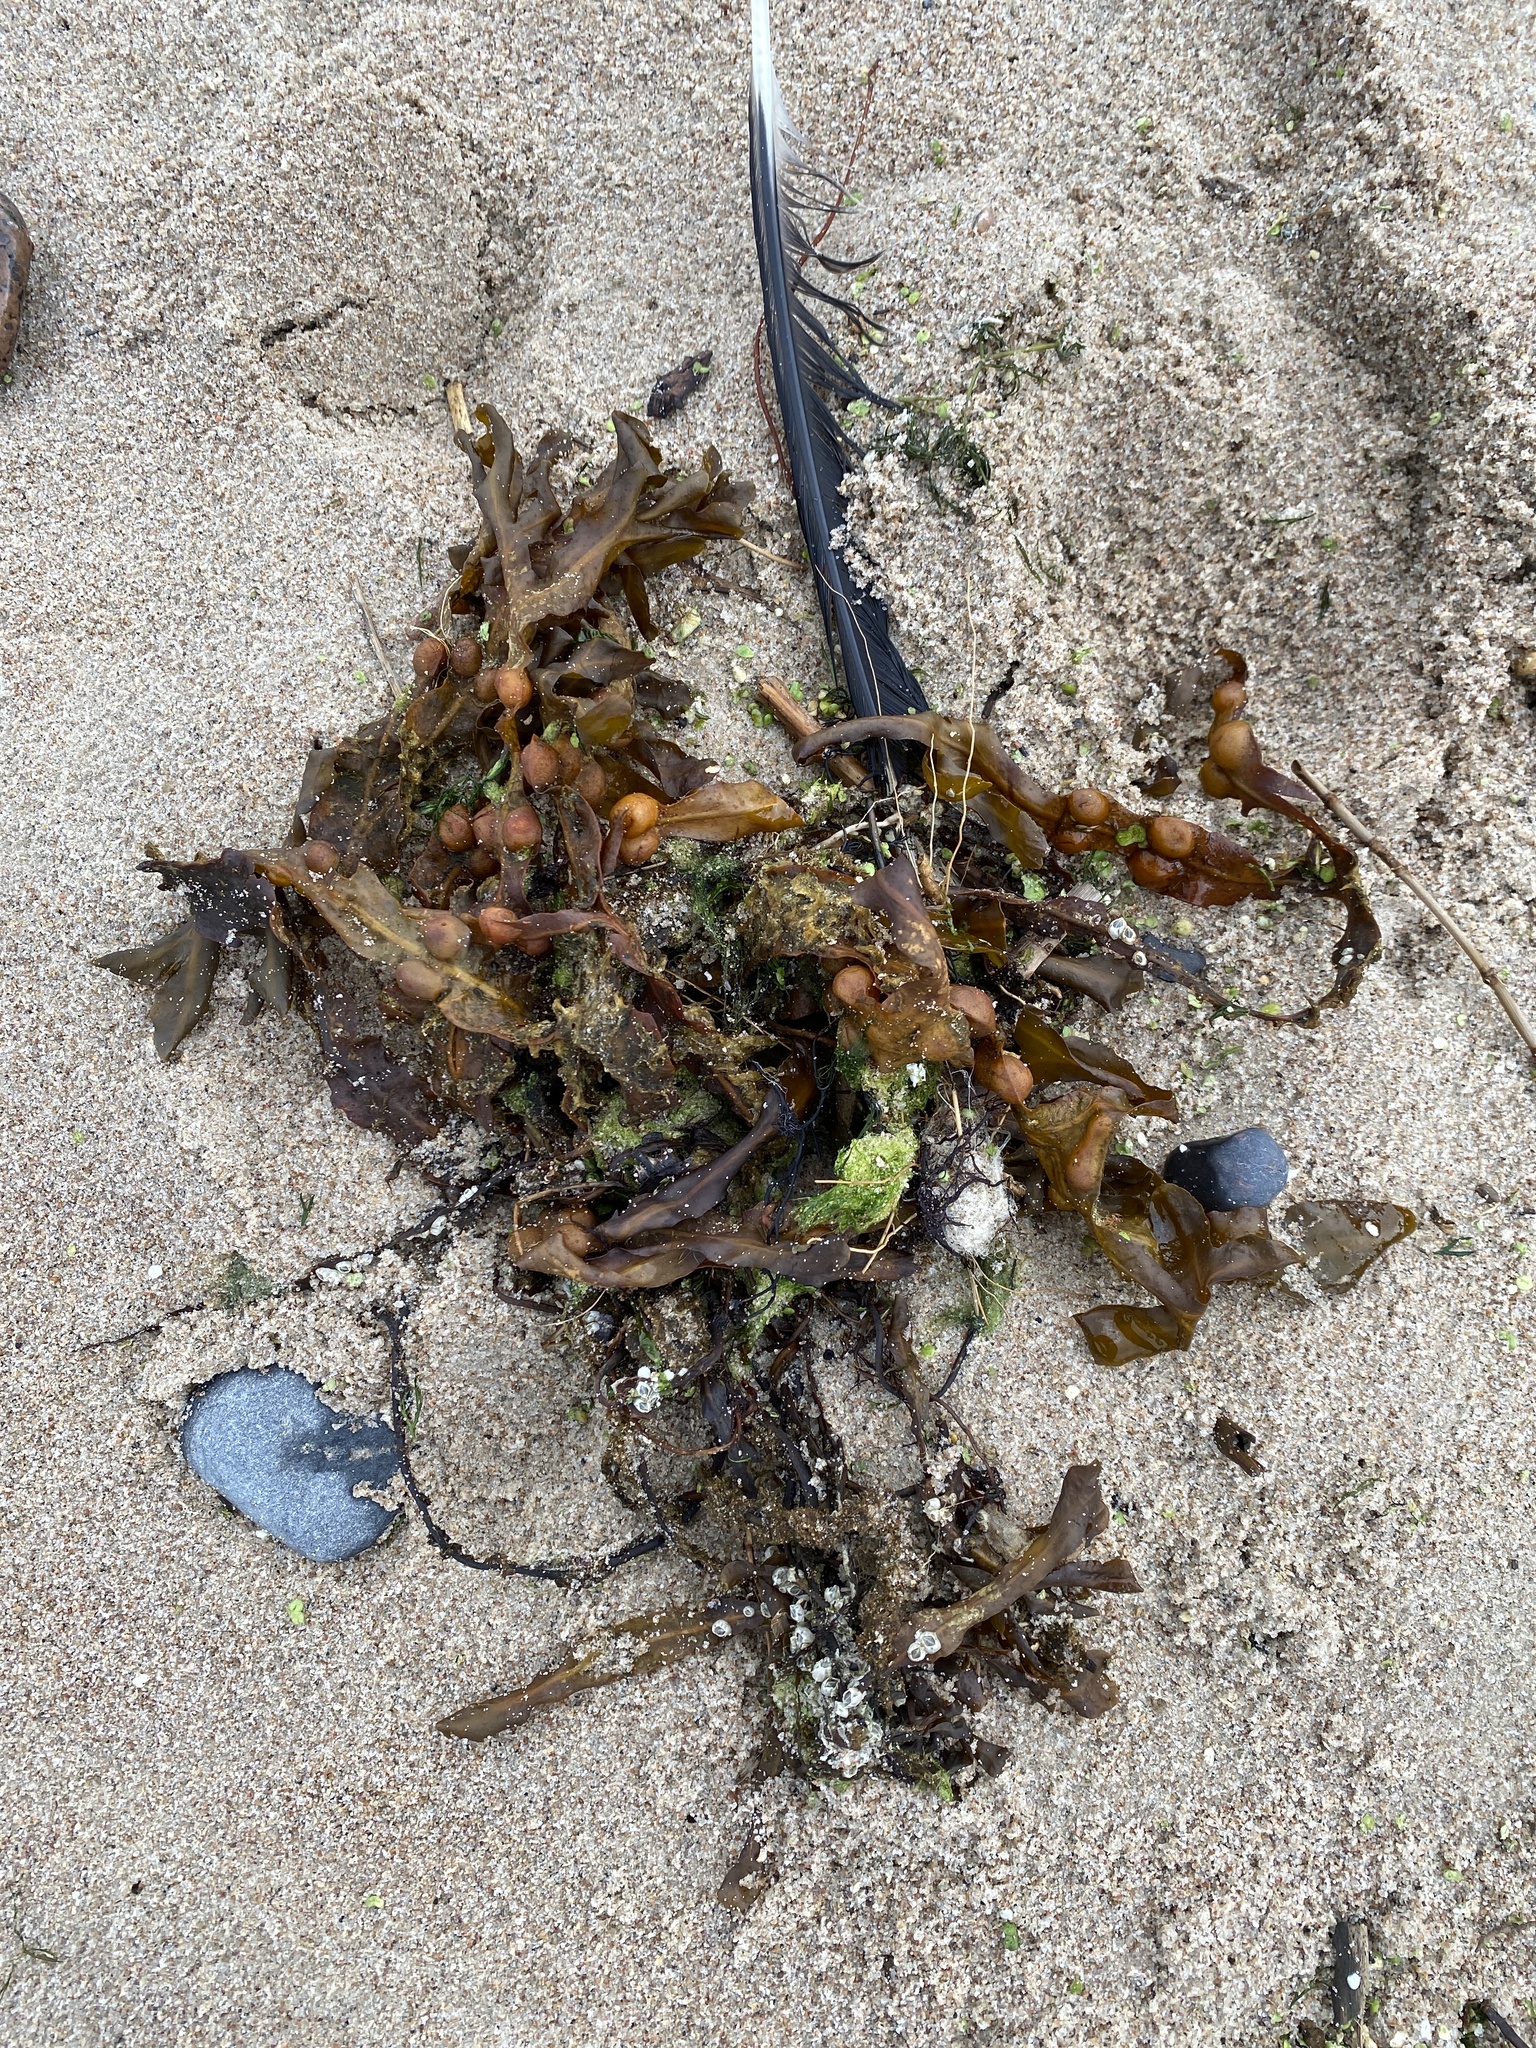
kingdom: Chromista
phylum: Ochrophyta
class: Phaeophyceae
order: Fucales
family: Fucaceae
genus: Fucus
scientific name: Fucus vesiculosus
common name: Bladder wrack
